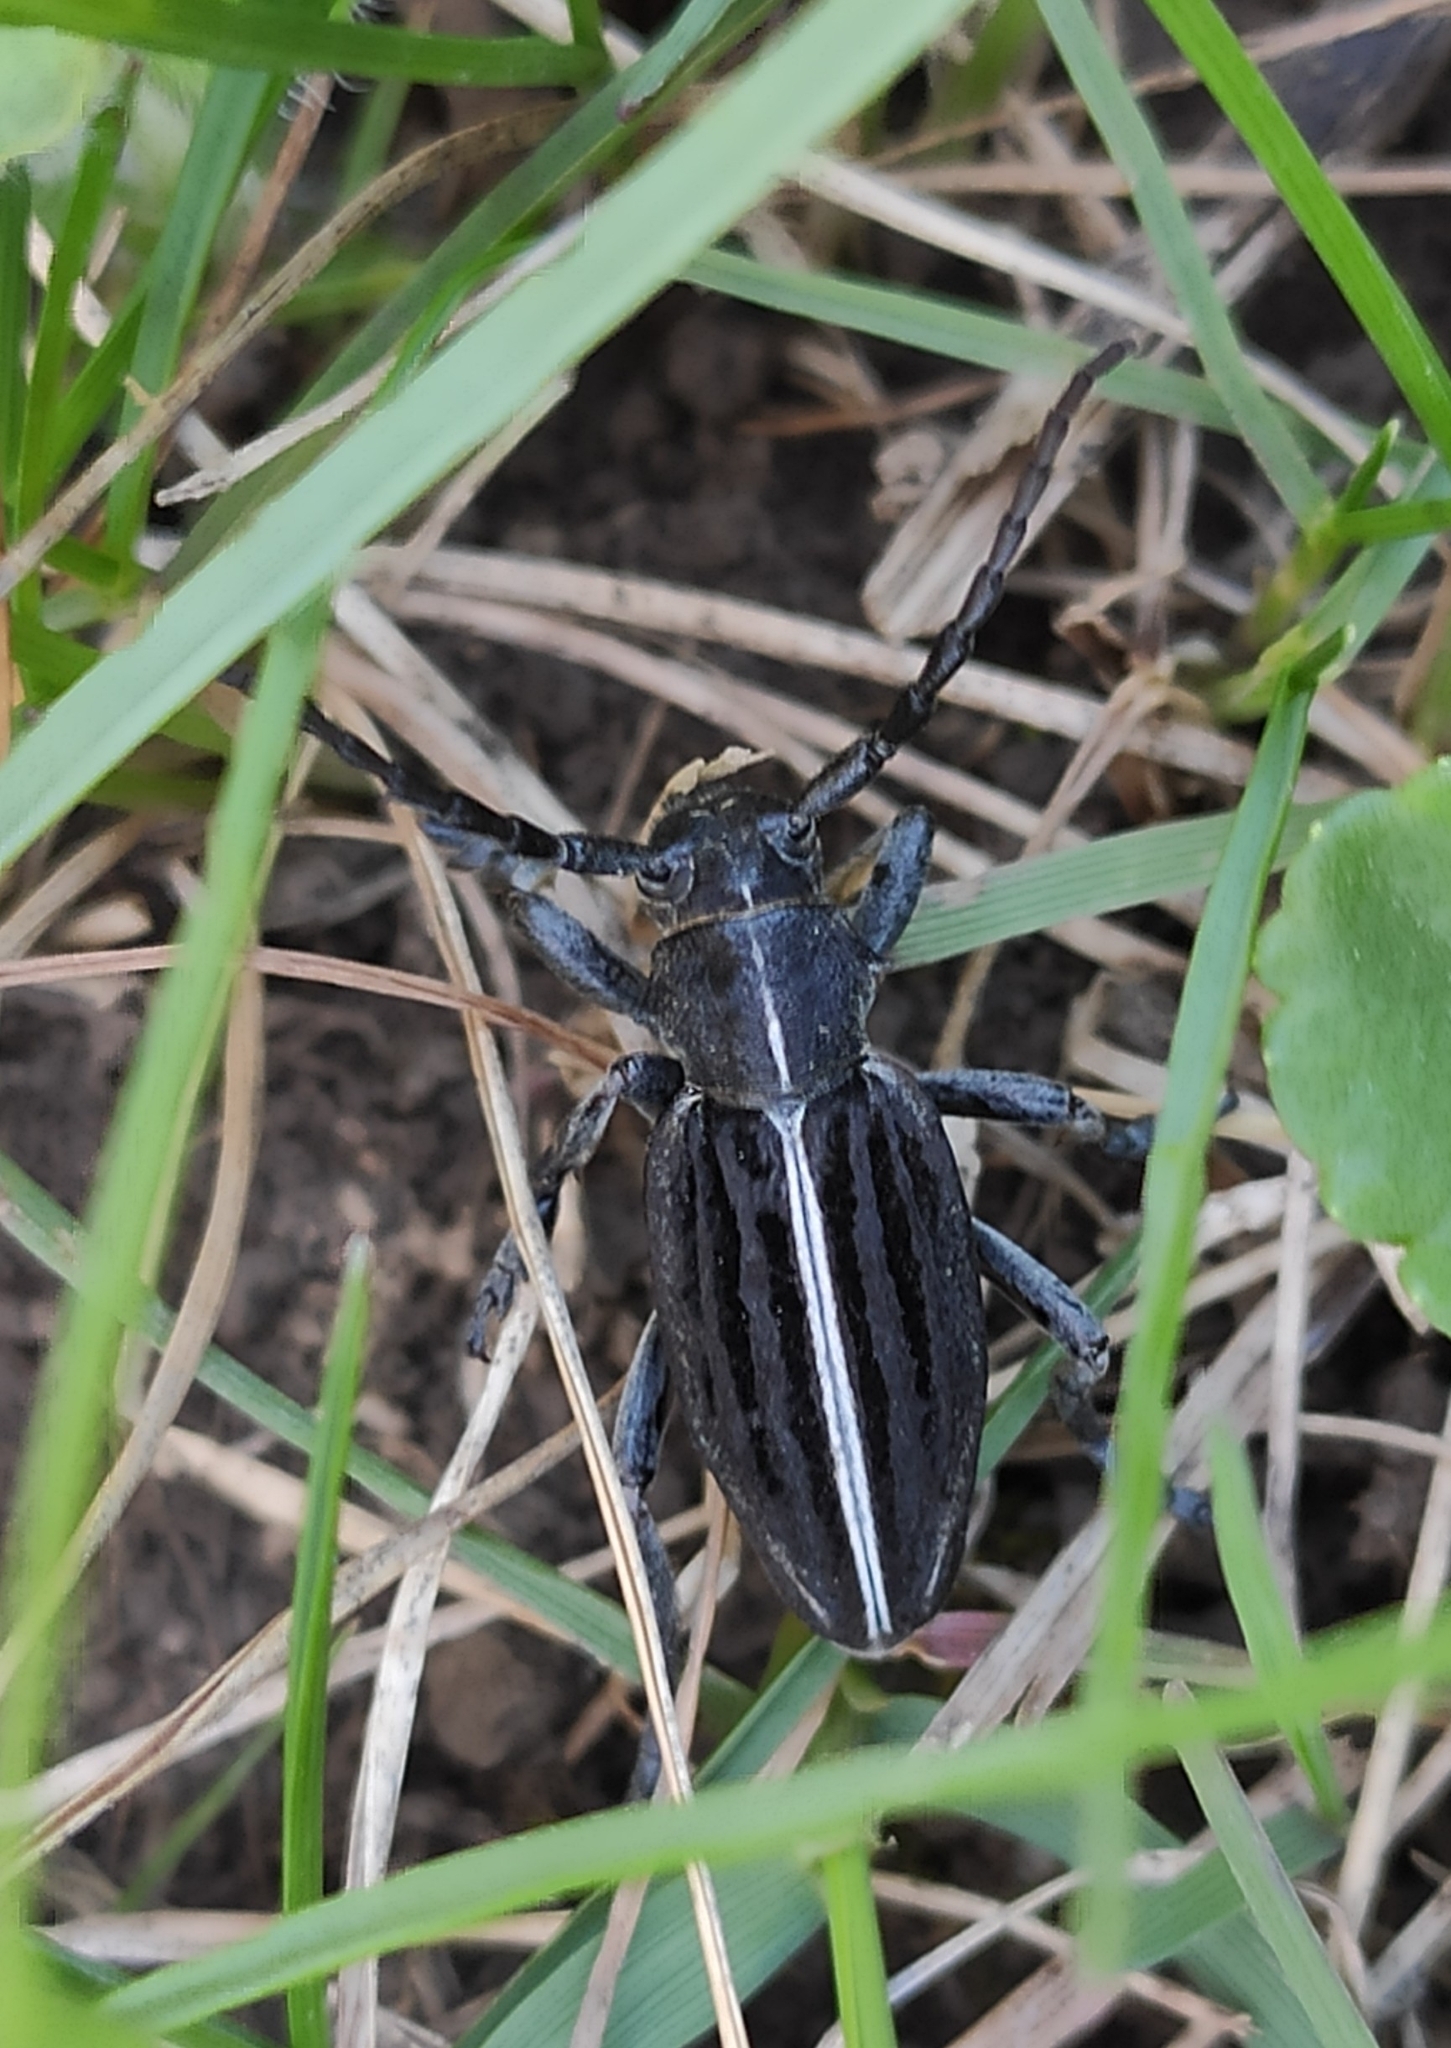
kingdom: Animalia
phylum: Arthropoda
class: Insecta
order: Coleoptera
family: Cerambycidae
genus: Dorcadion
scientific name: Dorcadion holosericeum
